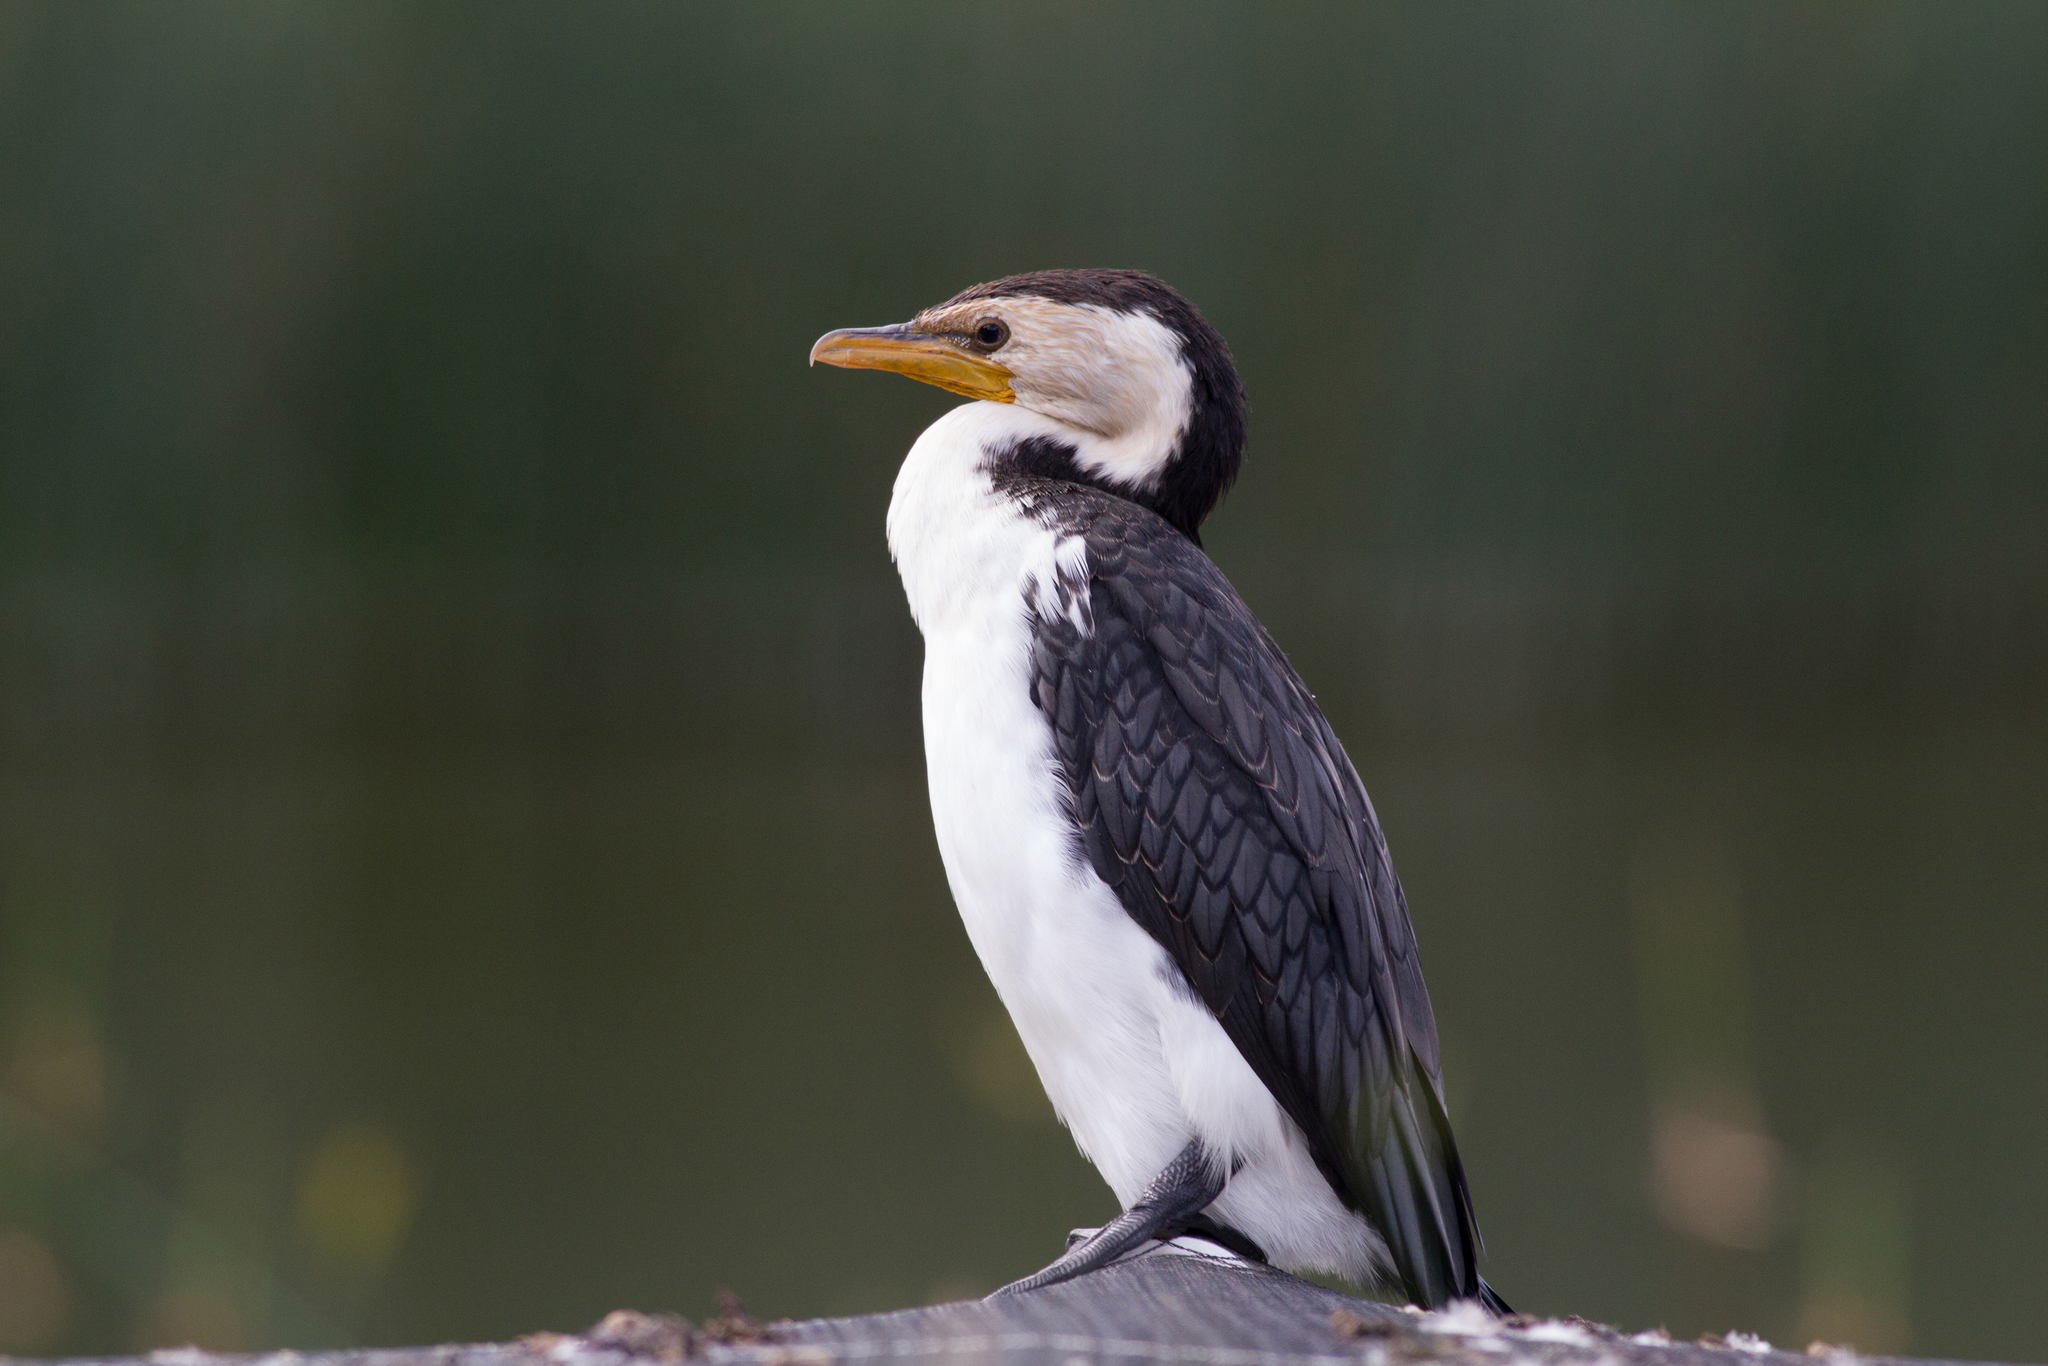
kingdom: Animalia
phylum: Chordata
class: Aves
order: Suliformes
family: Phalacrocoracidae
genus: Microcarbo
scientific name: Microcarbo melanoleucos
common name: Little pied cormorant
